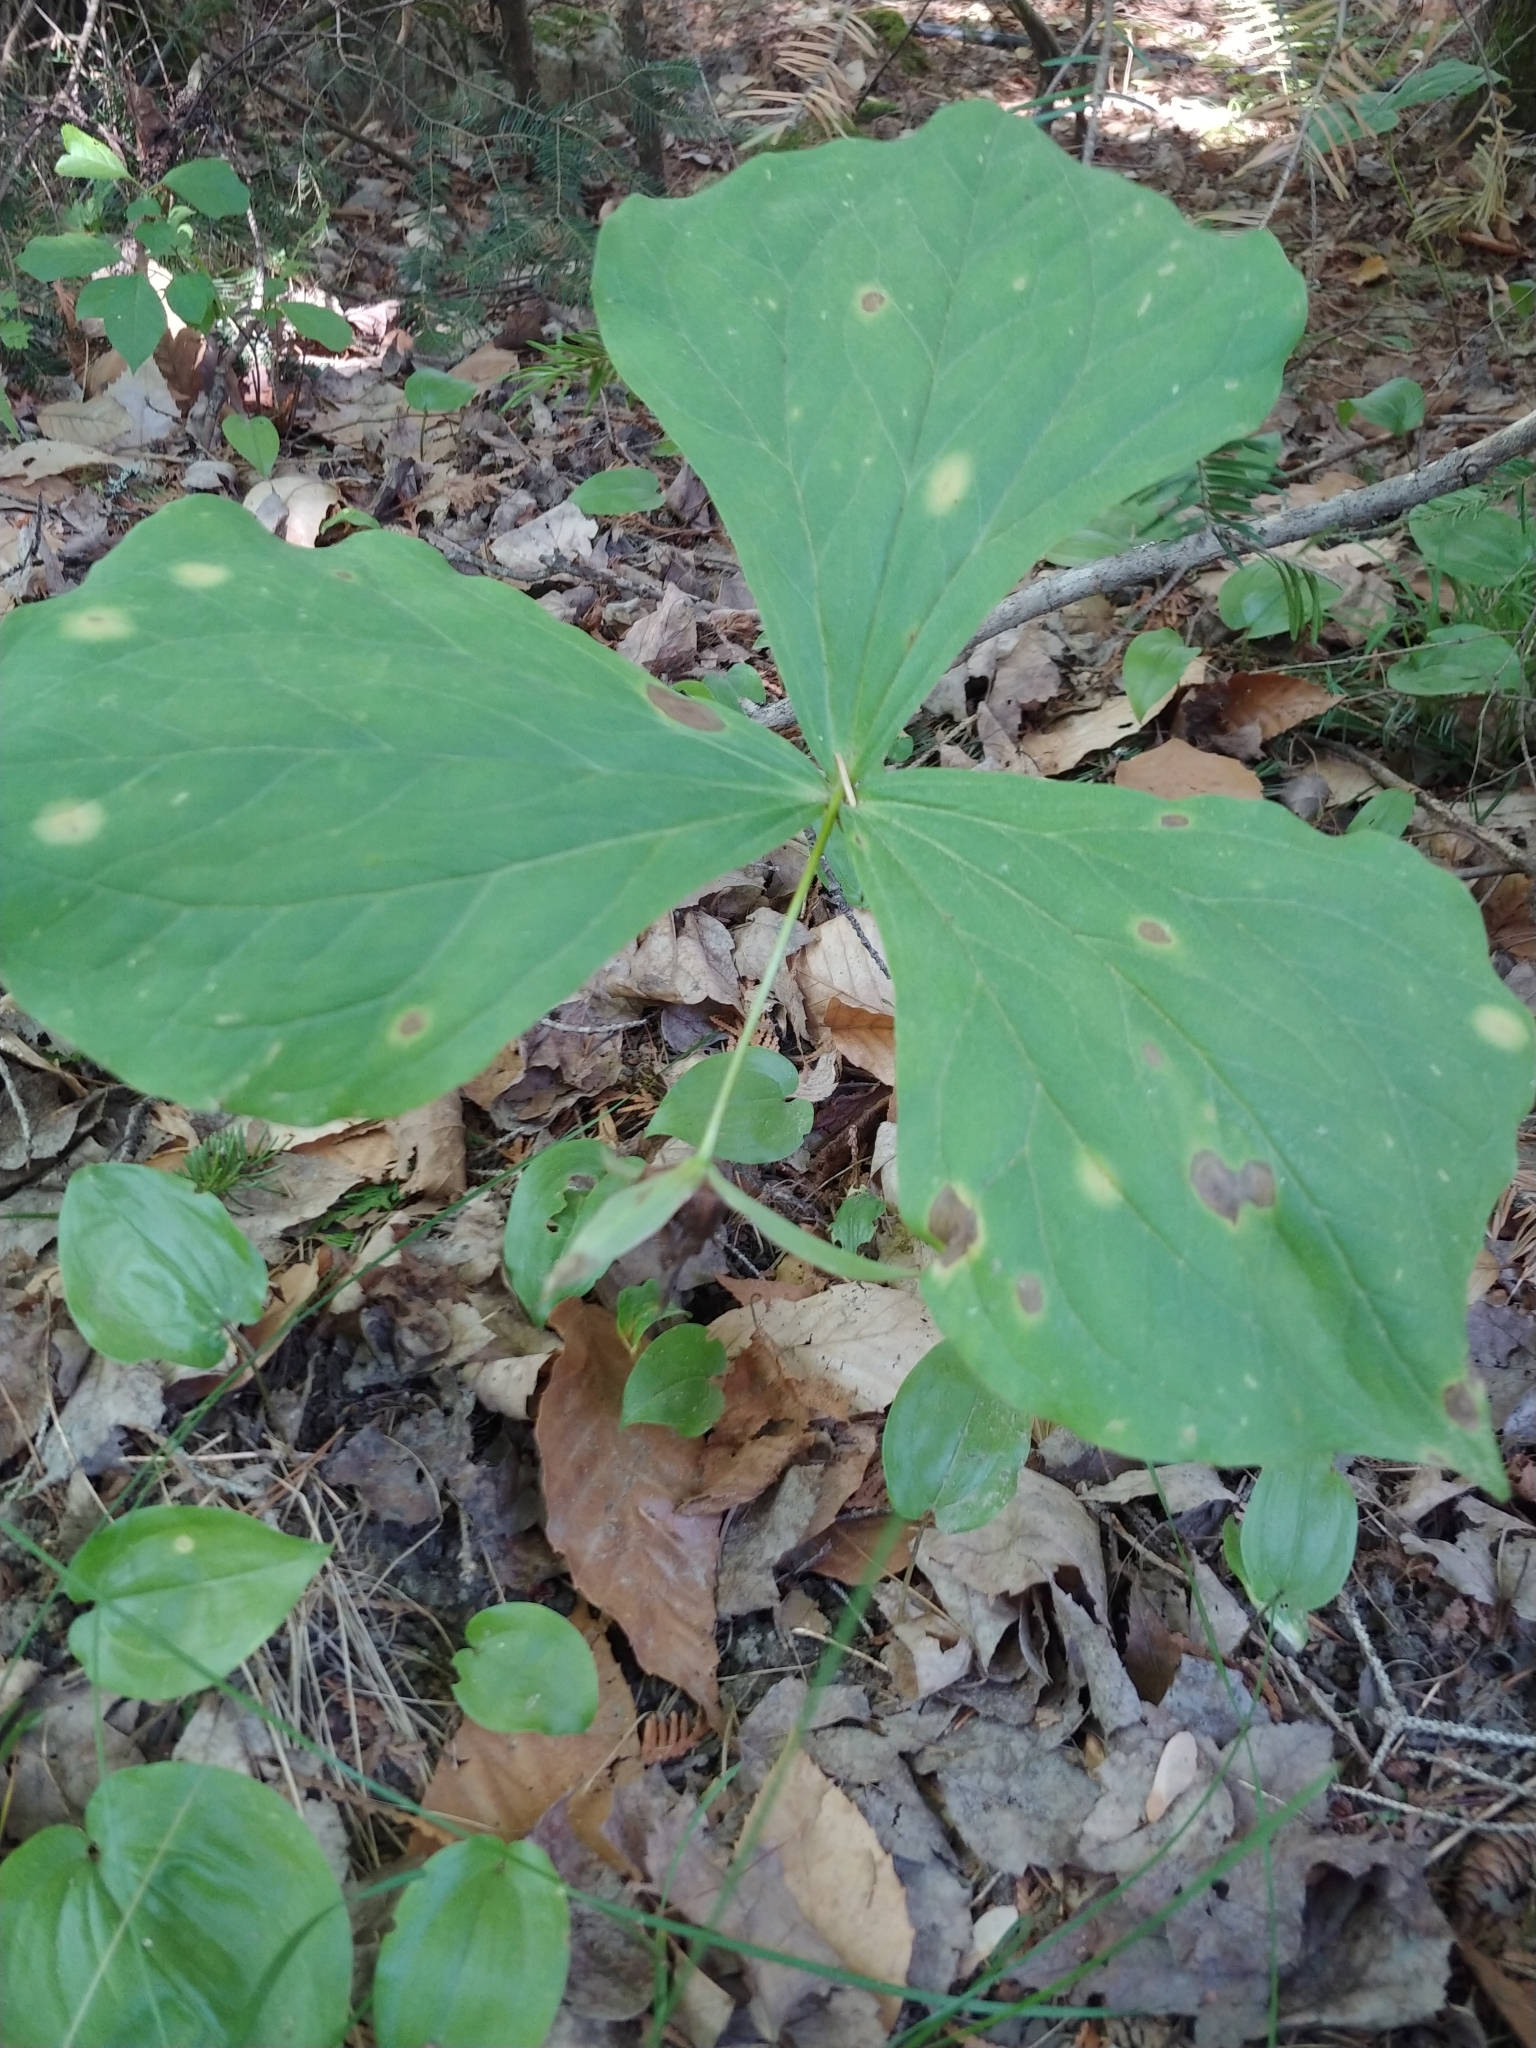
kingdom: Plantae
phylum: Tracheophyta
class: Liliopsida
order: Liliales
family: Melanthiaceae
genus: Trillium
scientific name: Trillium erectum
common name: Purple trillium
